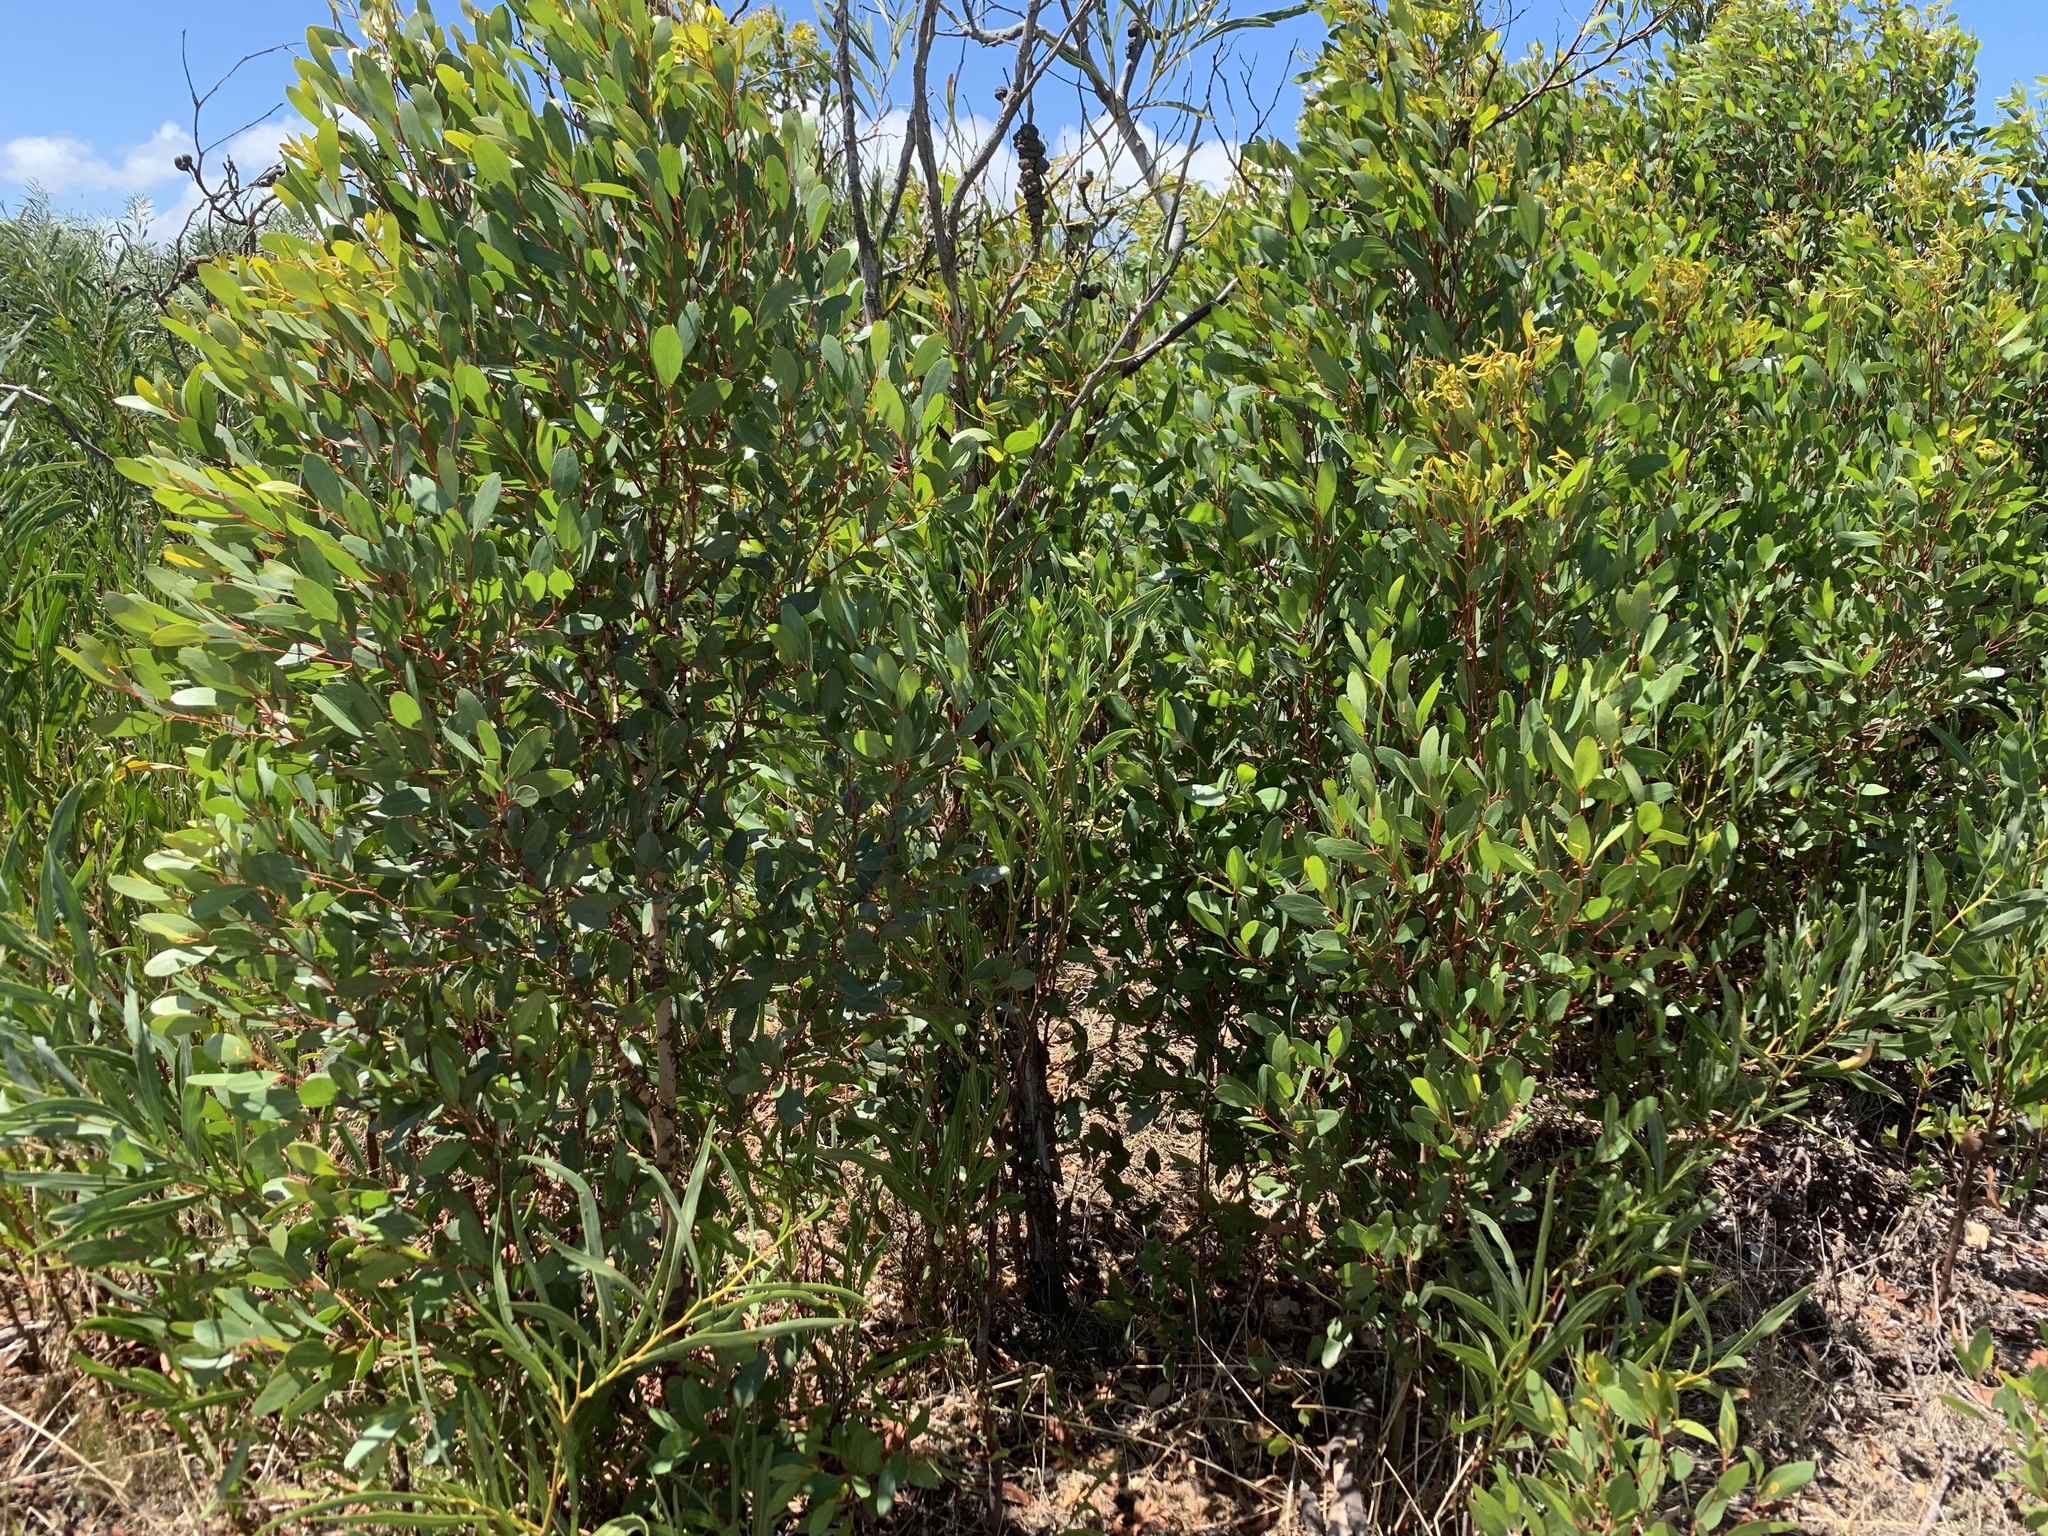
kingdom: Plantae
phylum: Tracheophyta
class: Magnoliopsida
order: Myrtales
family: Myrtaceae
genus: Eucalyptus
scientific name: Eucalyptus conferruminata
